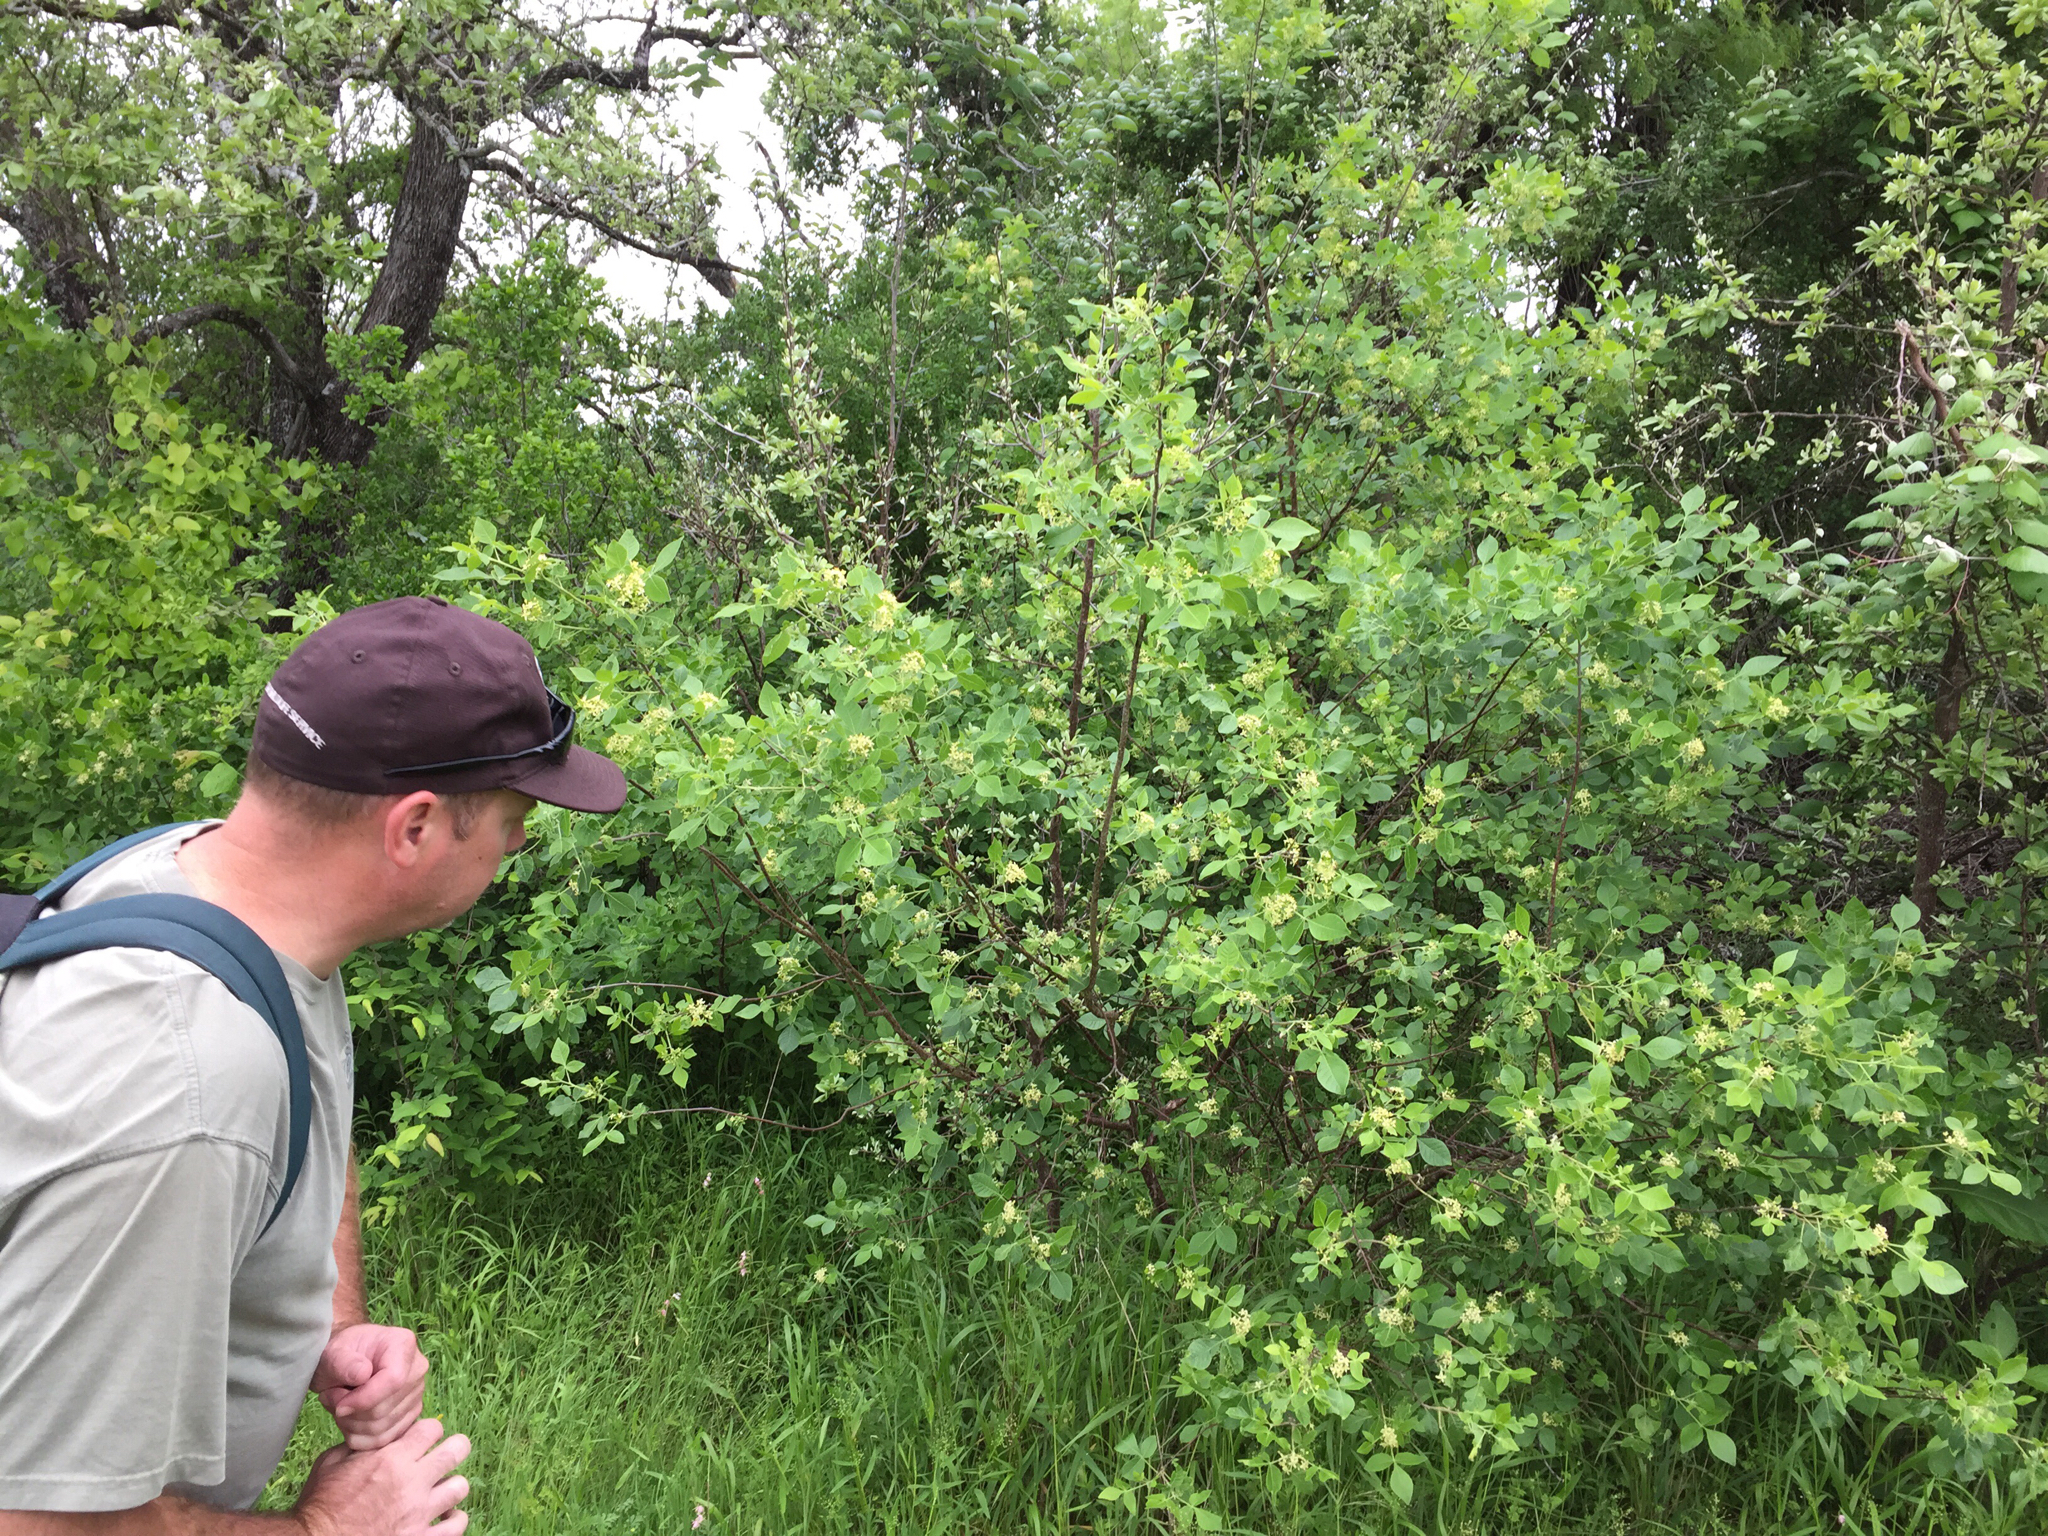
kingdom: Plantae
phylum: Tracheophyta
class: Magnoliopsida
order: Sapindales
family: Rutaceae
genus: Ptelea
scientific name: Ptelea trifoliata
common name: Common hop-tree
